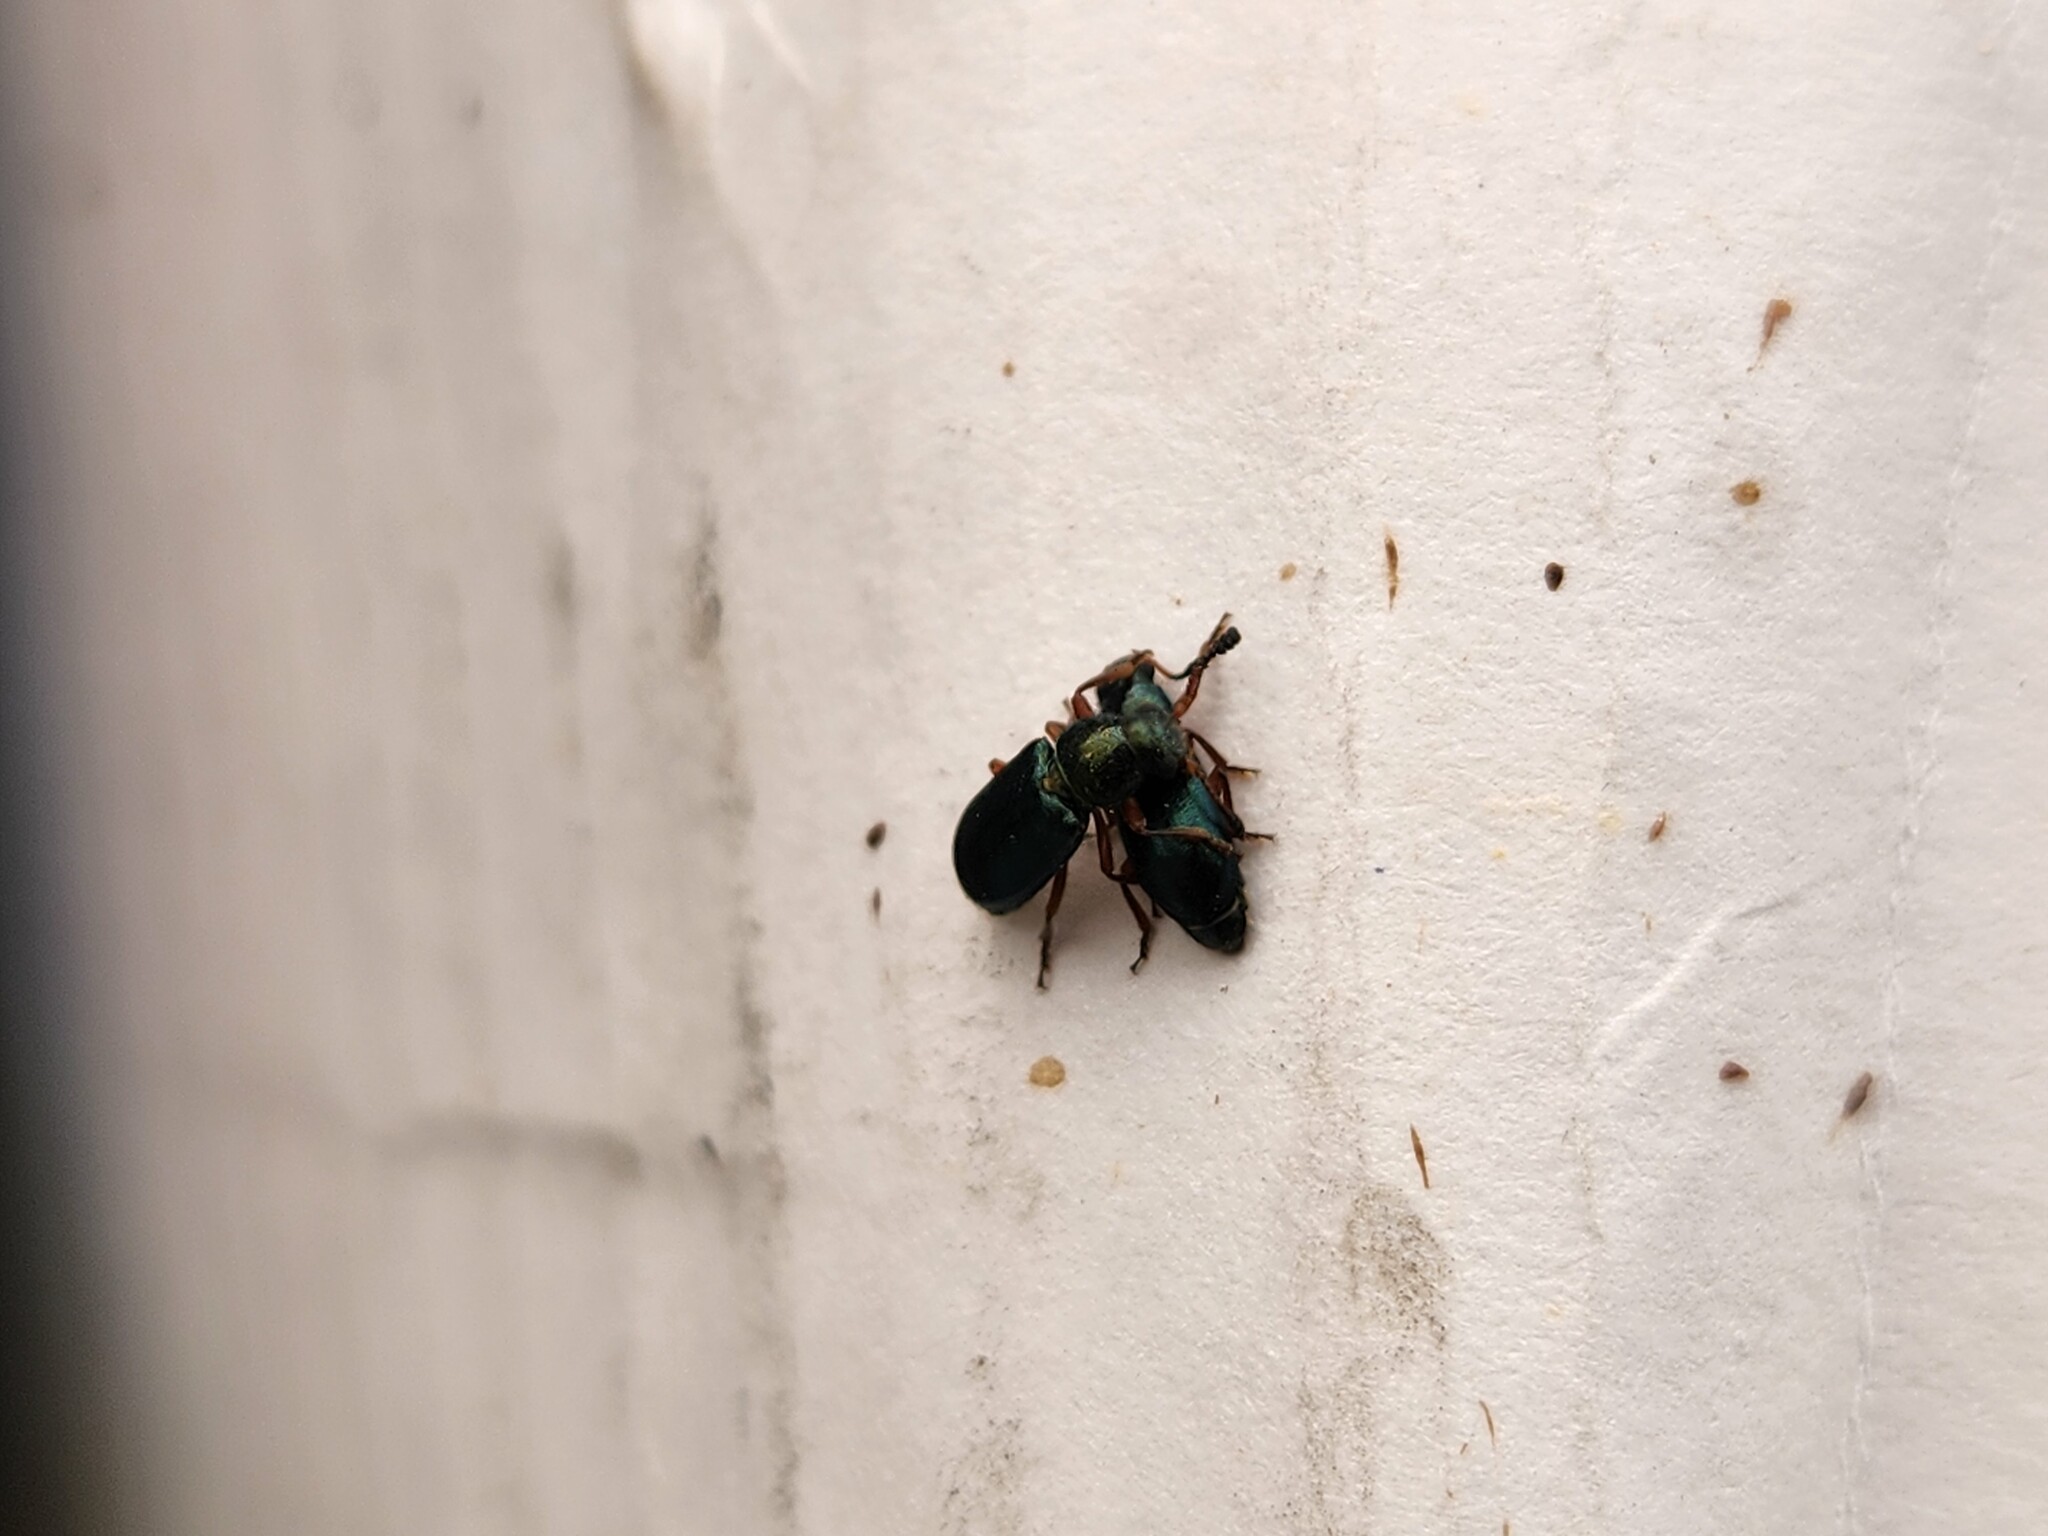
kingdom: Animalia
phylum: Arthropoda
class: Insecta
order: Coleoptera
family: Cleridae
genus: Necrobia
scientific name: Necrobia rufipes
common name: Red-legged ham beetle
